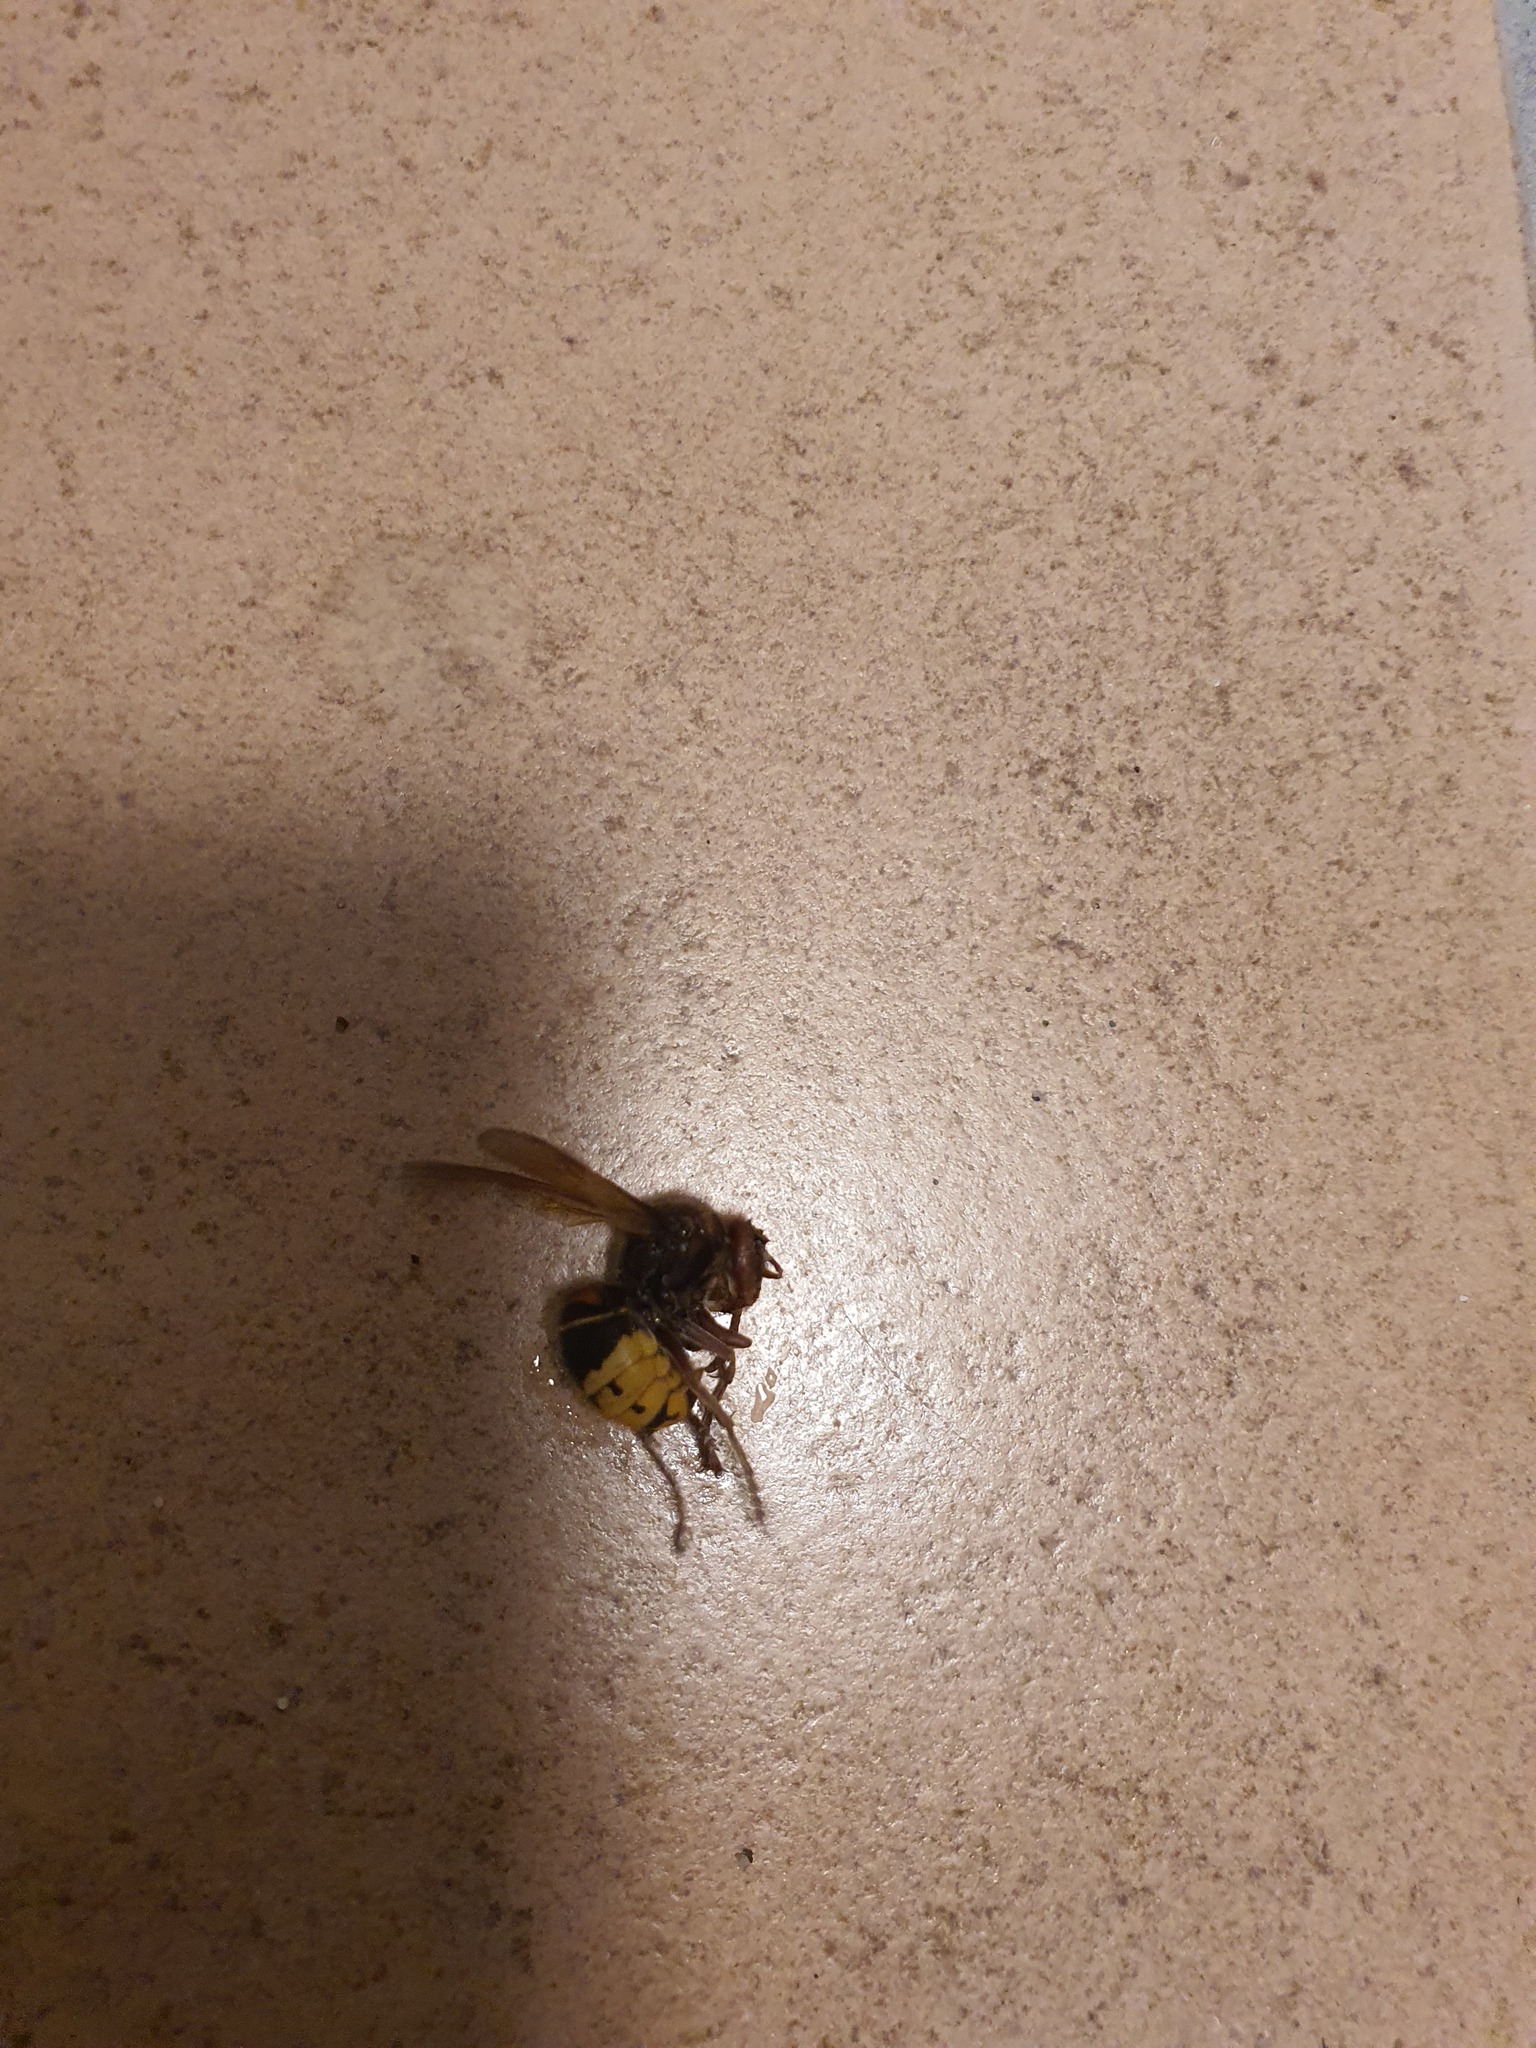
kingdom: Animalia
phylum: Arthropoda
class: Insecta
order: Hymenoptera
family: Vespidae
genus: Vespa
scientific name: Vespa crabro
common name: Hornet
